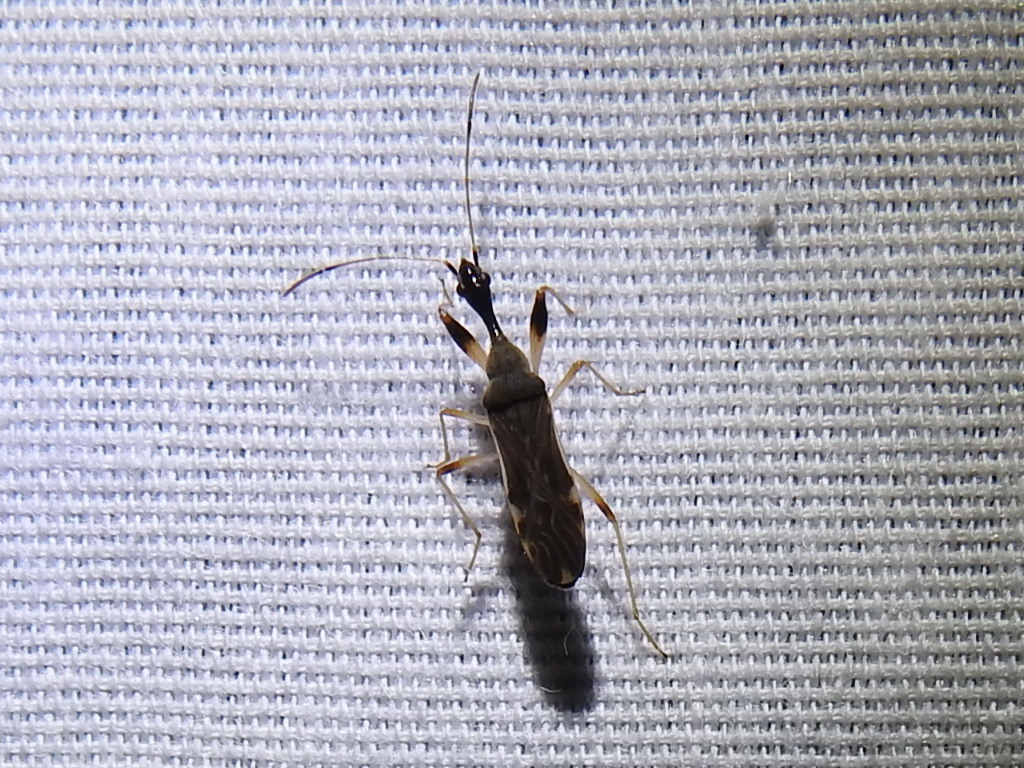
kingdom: Animalia
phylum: Arthropoda
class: Insecta
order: Hemiptera
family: Rhyparochromidae
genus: Myodocha
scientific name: Myodocha serripes
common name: Long-necked seed bug
